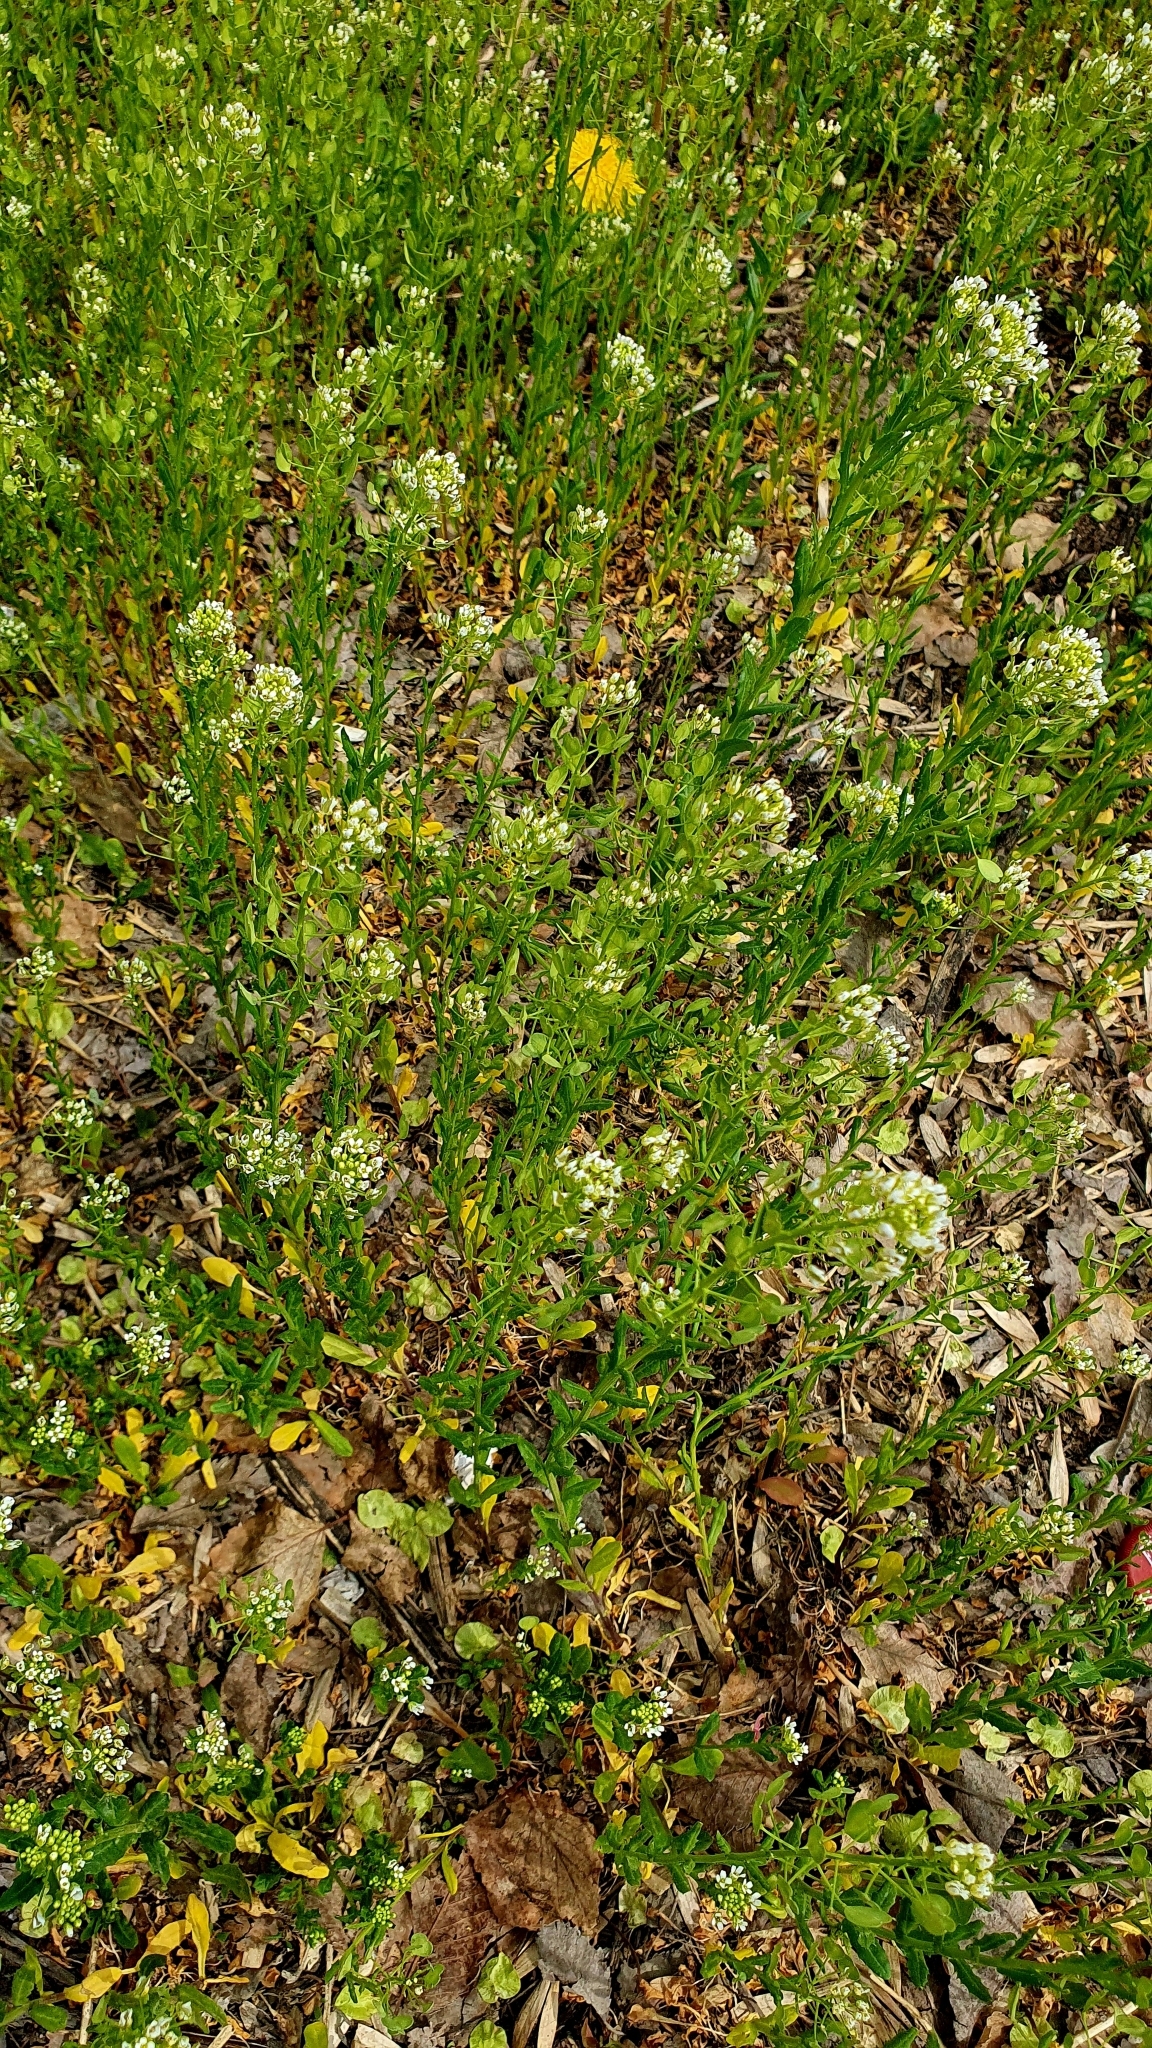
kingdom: Plantae
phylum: Tracheophyta
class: Magnoliopsida
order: Brassicales
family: Brassicaceae
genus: Thlaspi
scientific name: Thlaspi arvense
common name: Field pennycress
